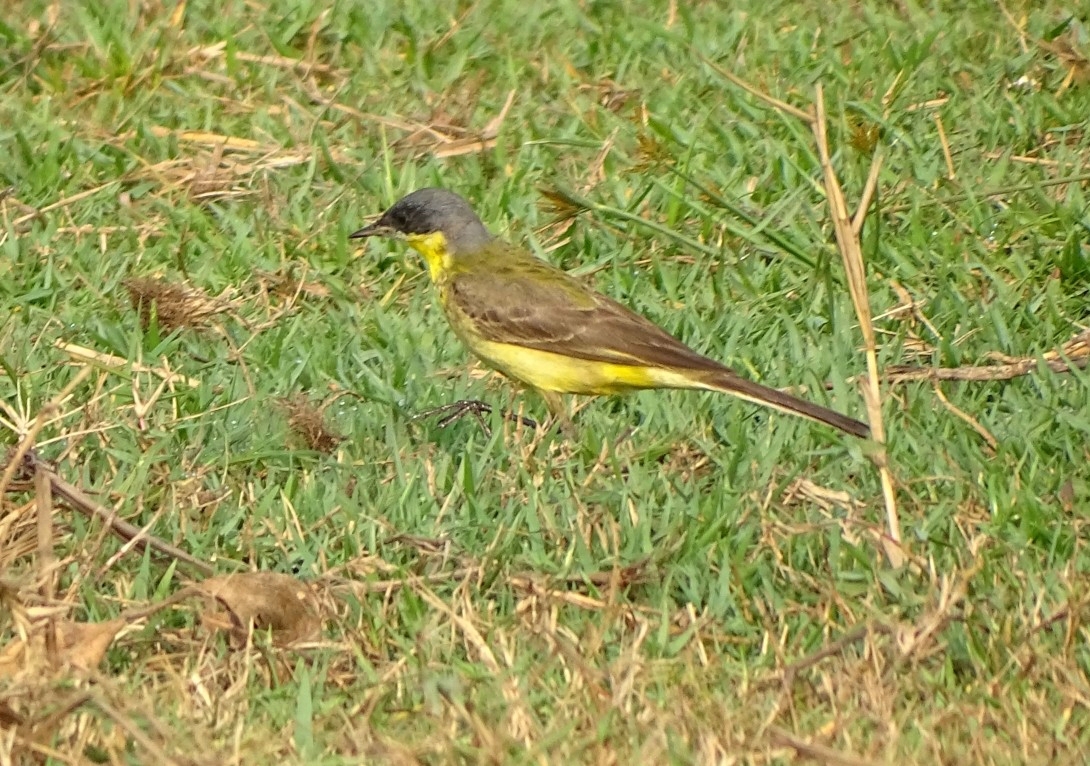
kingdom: Animalia
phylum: Chordata
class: Aves
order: Passeriformes
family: Motacillidae
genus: Motacilla
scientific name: Motacilla flava
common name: Western yellow wagtail
